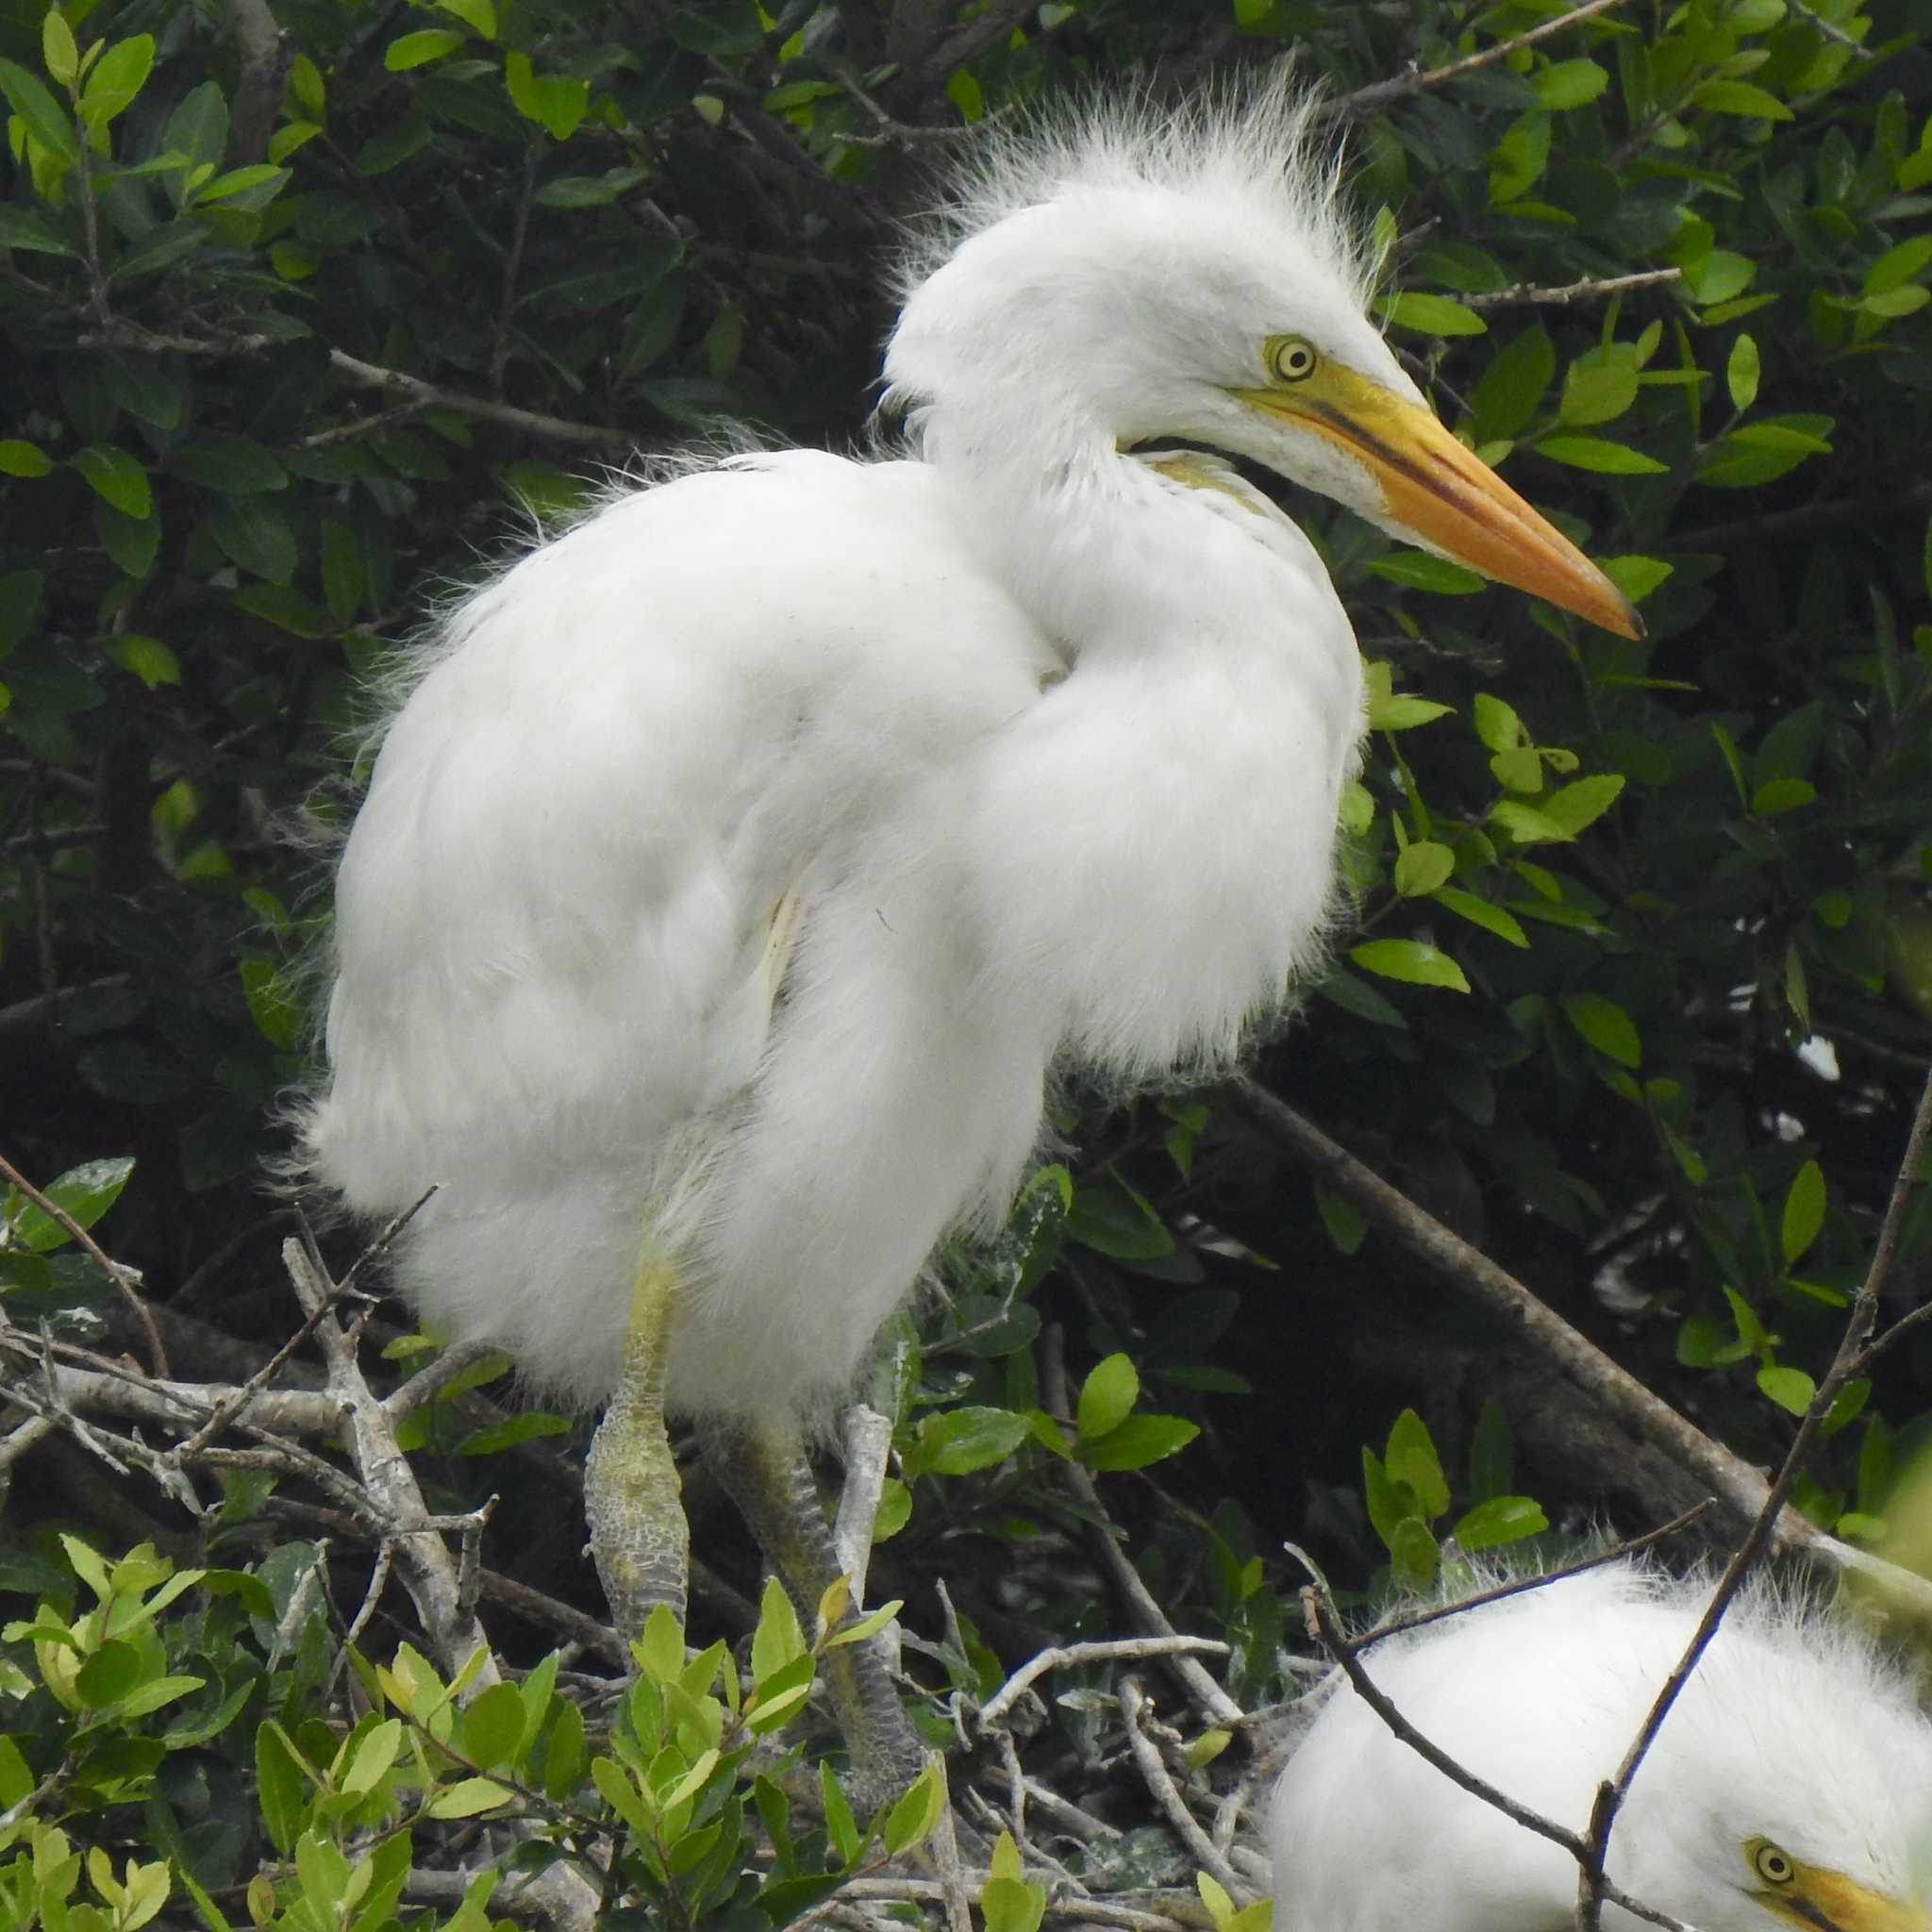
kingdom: Animalia
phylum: Chordata
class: Aves
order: Pelecaniformes
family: Ardeidae
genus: Ardea
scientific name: Ardea alba
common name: Great egret
